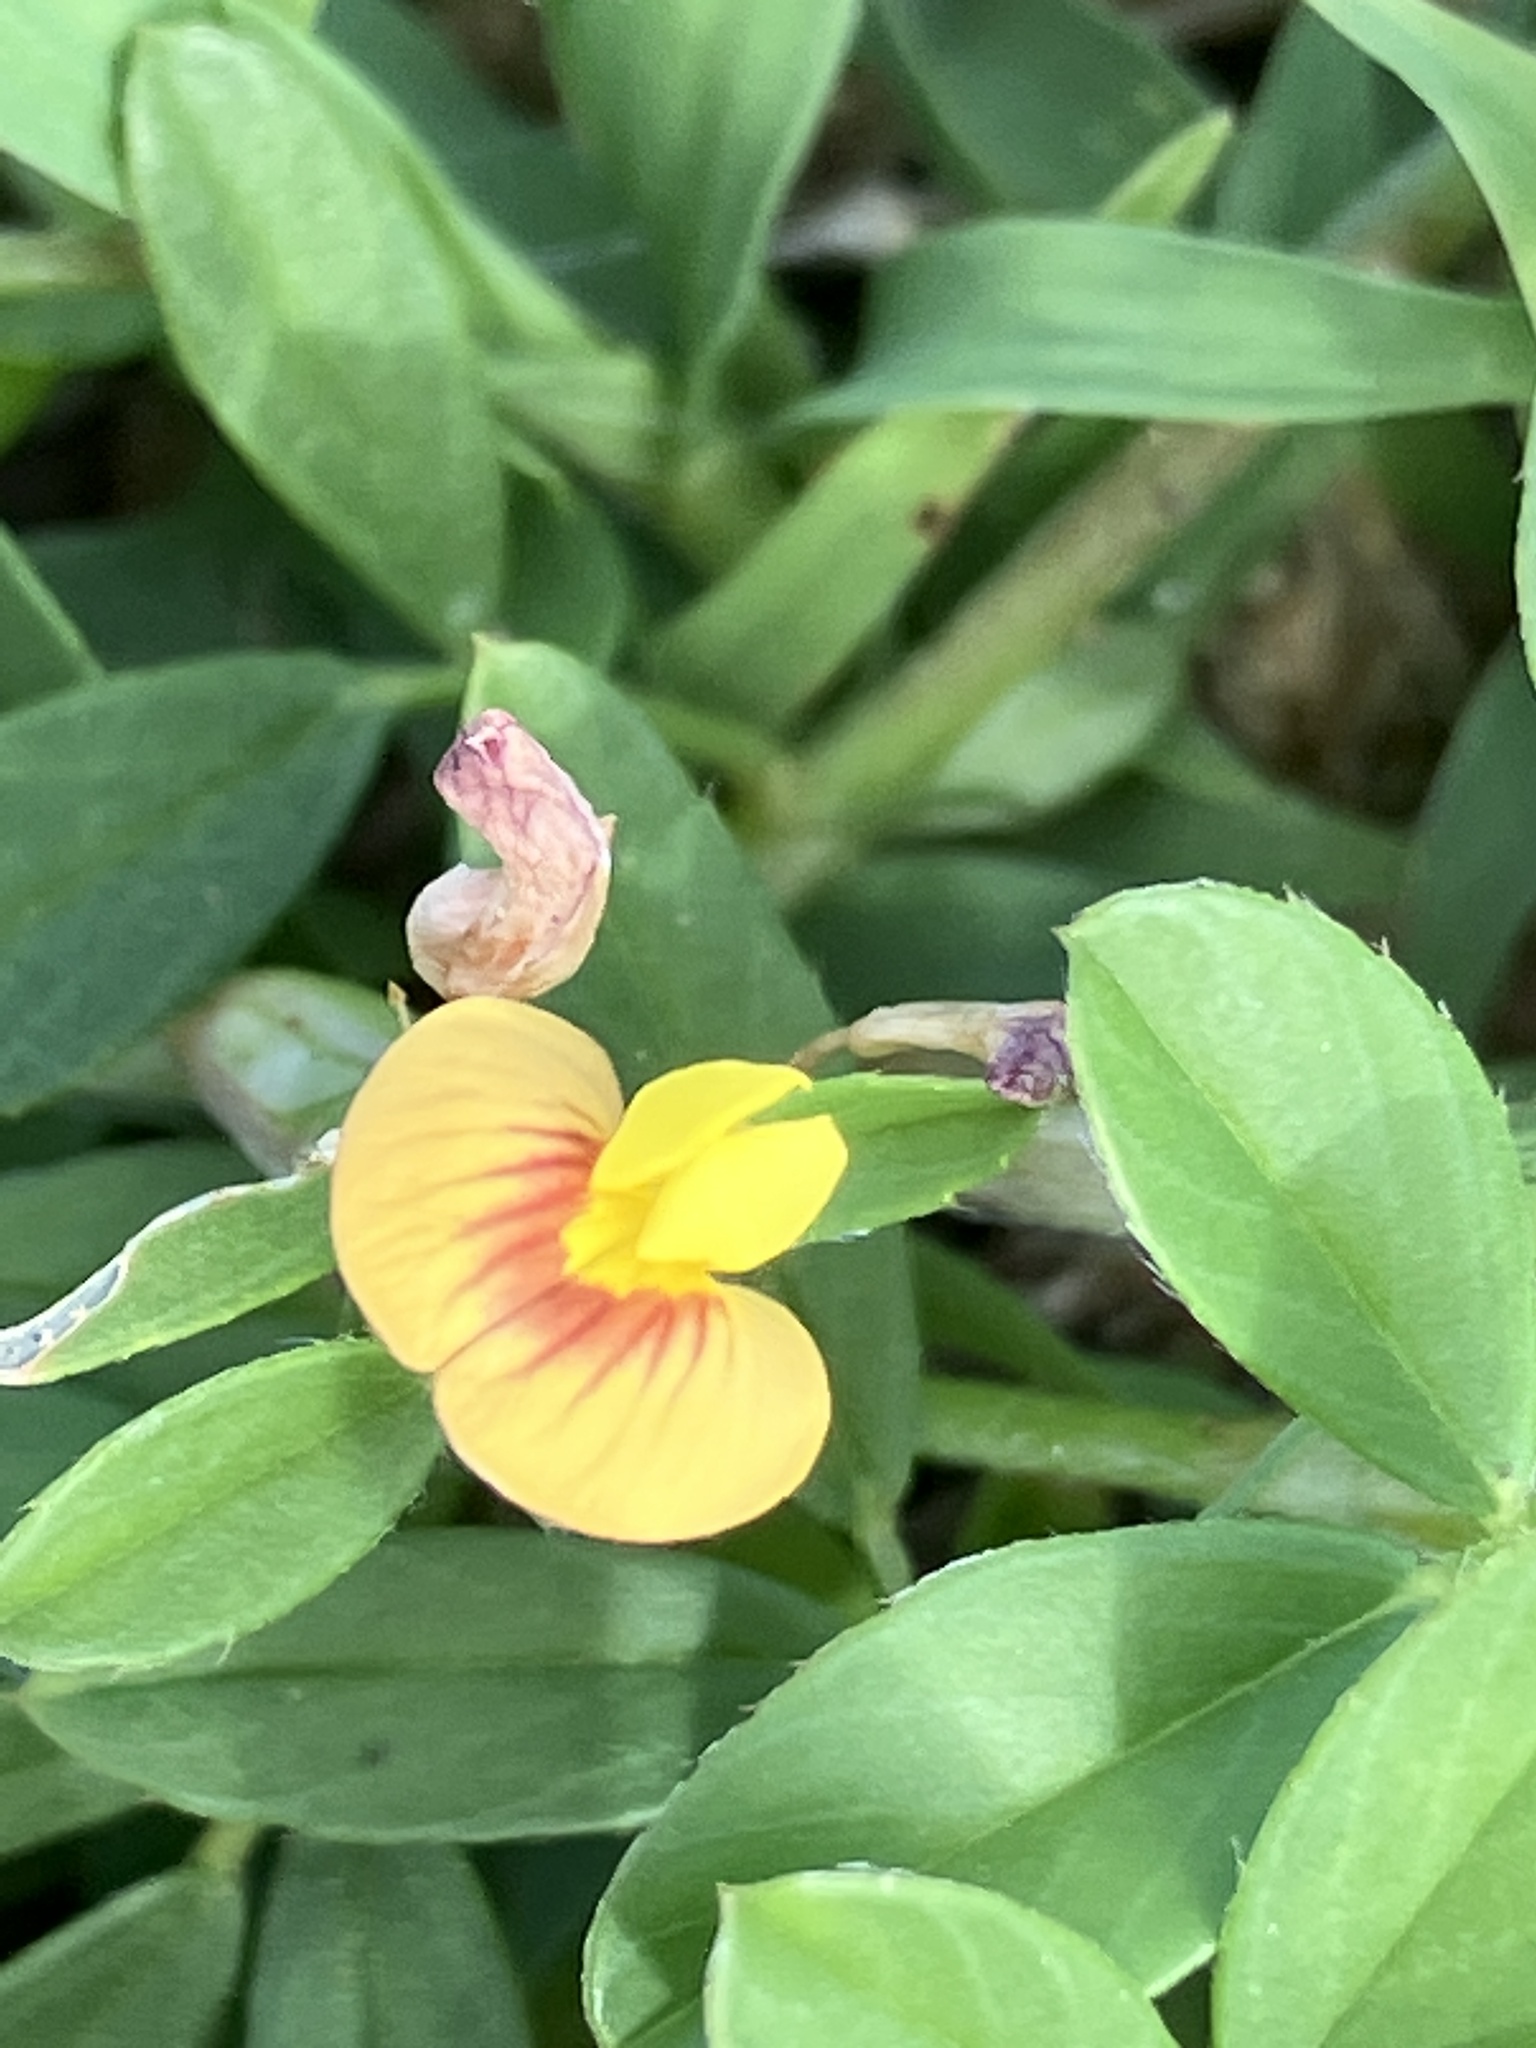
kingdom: Plantae
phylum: Tracheophyta
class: Magnoliopsida
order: Fabales
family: Fabaceae
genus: Stylosanthes
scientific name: Stylosanthes hamata
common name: Cheesytoes
